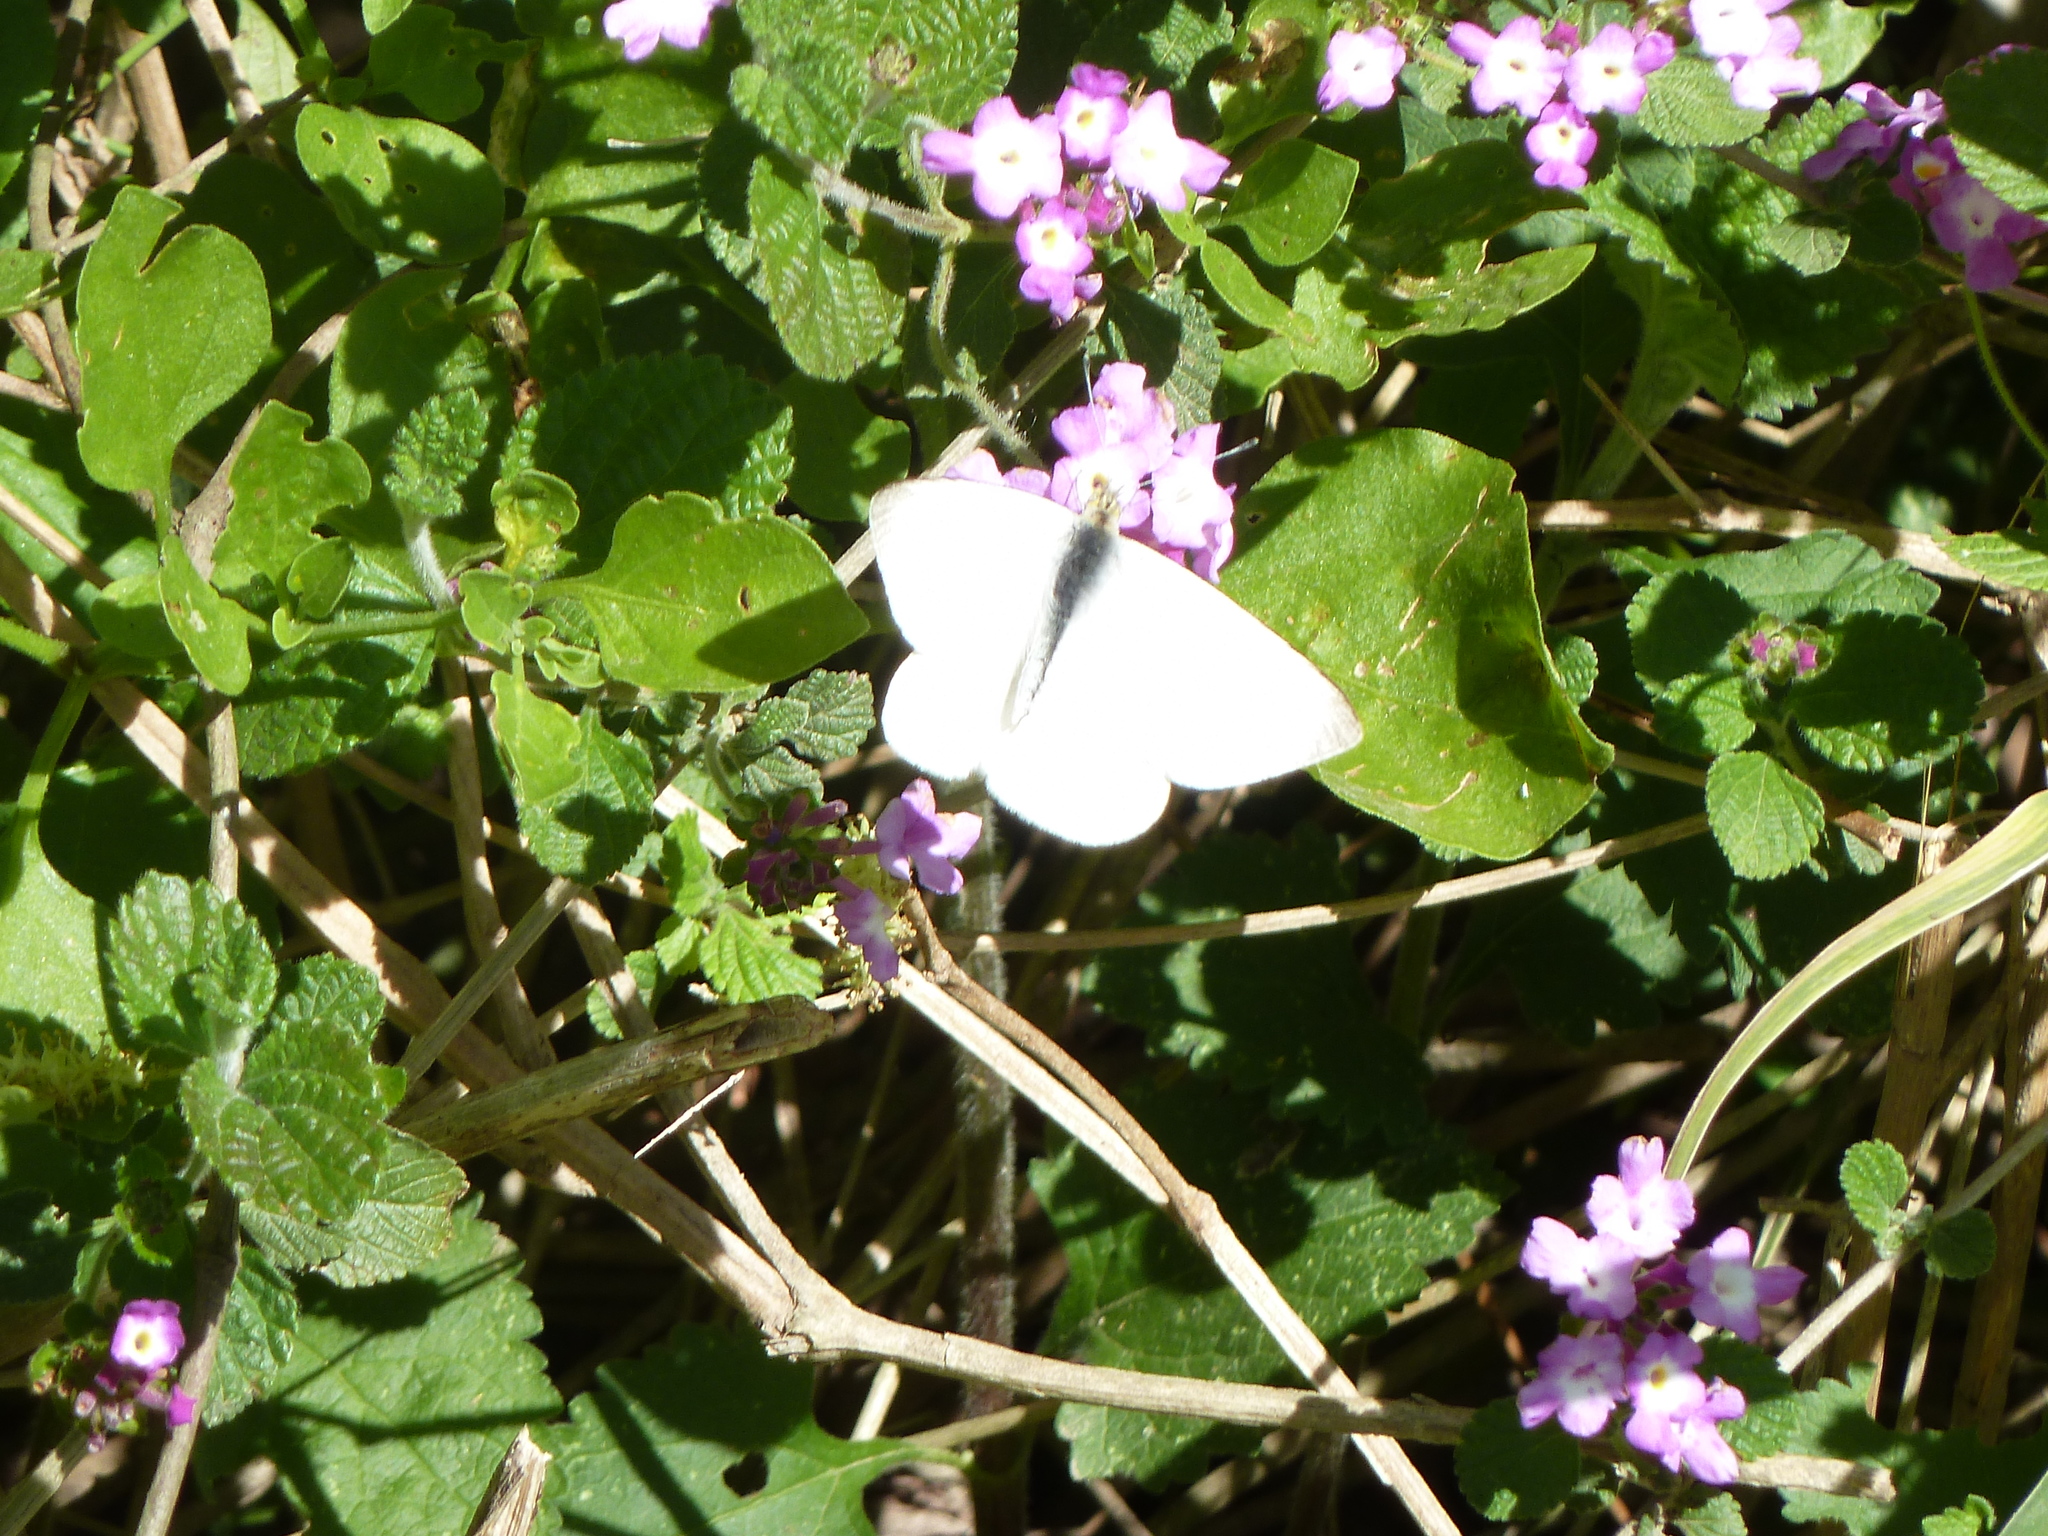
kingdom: Animalia
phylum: Arthropoda
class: Insecta
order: Lepidoptera
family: Pieridae
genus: Theochila
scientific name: Theochila maenacte
